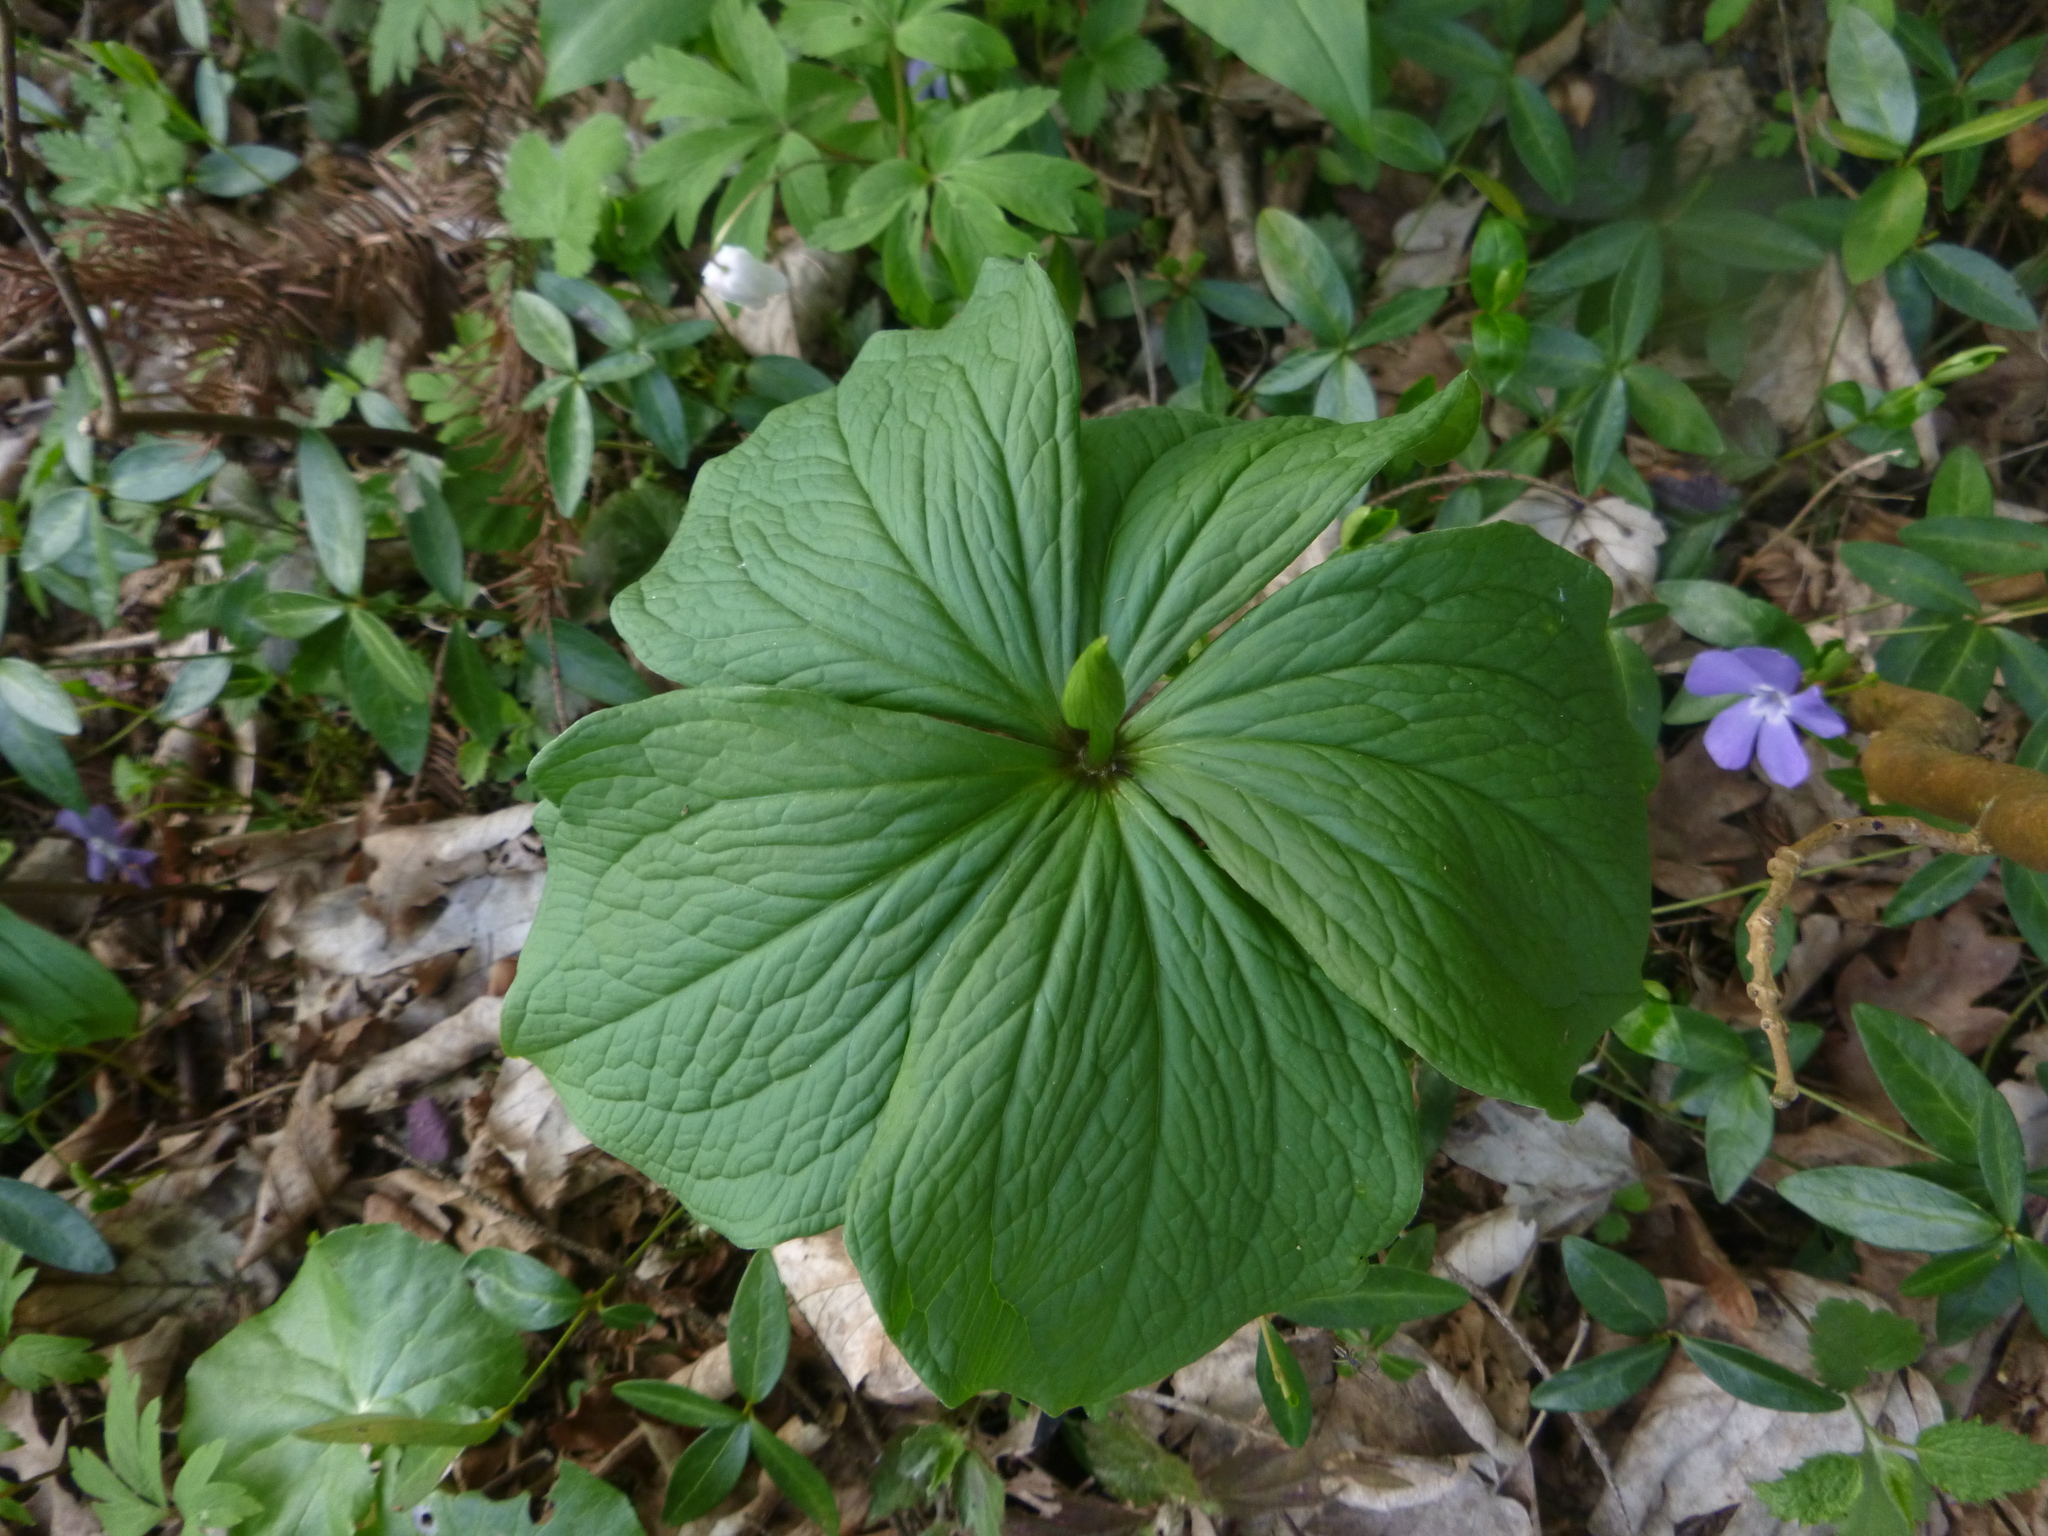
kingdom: Plantae
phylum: Tracheophyta
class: Liliopsida
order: Liliales
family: Melanthiaceae
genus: Paris
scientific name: Paris quadrifolia
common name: Herb-paris
